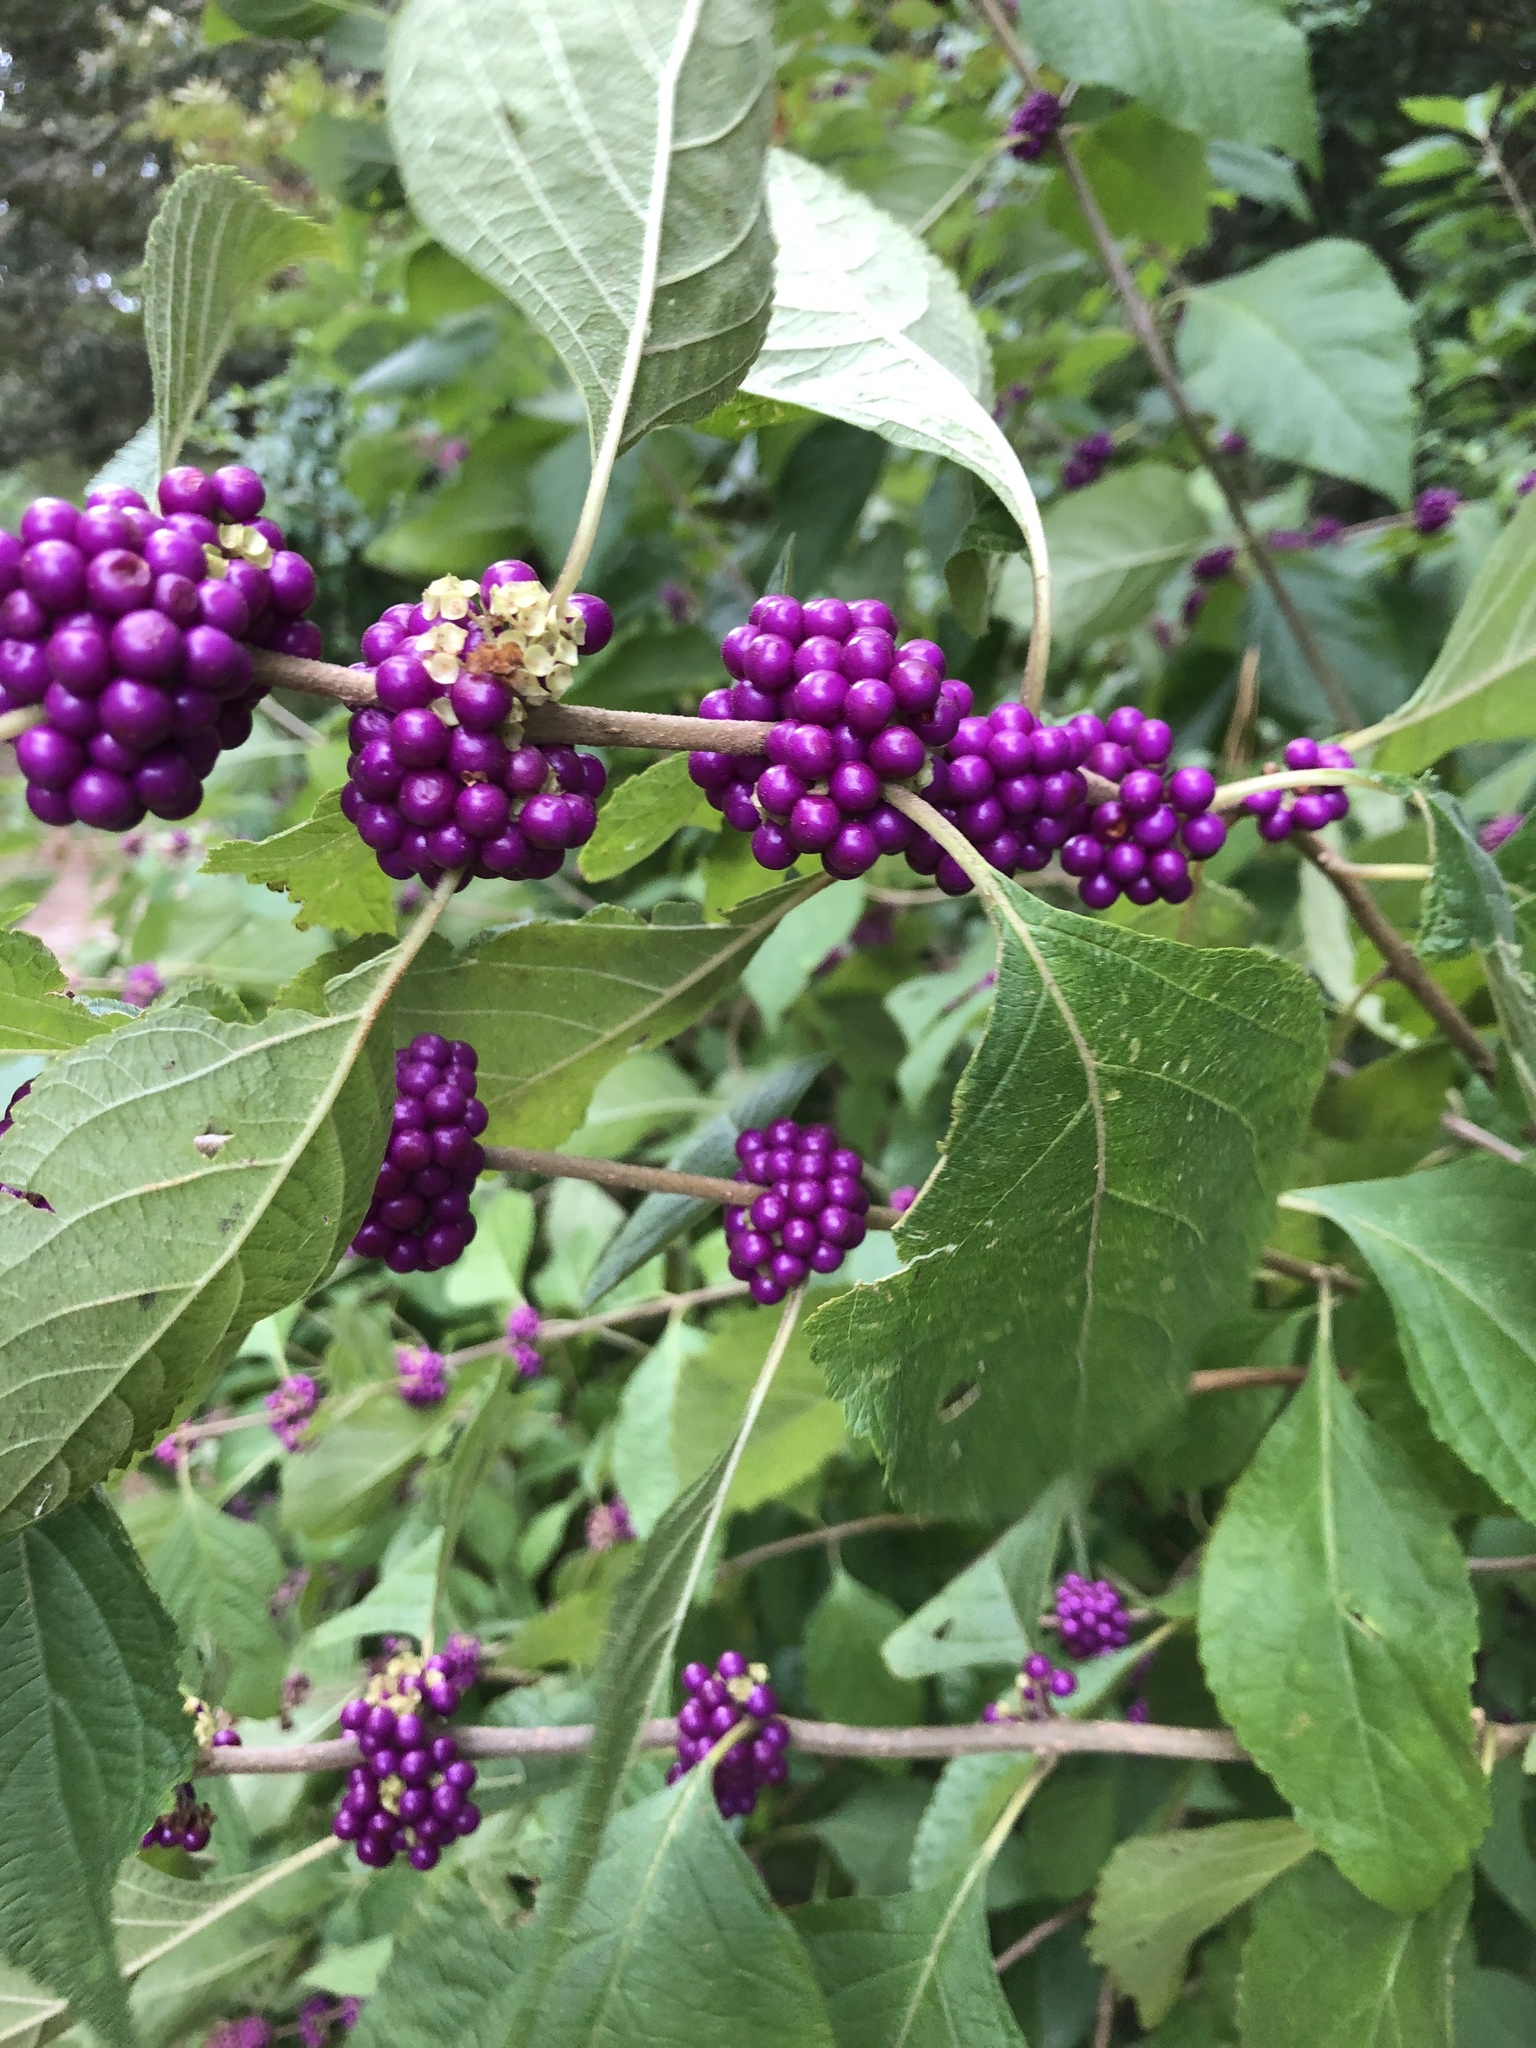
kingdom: Plantae
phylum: Tracheophyta
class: Magnoliopsida
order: Lamiales
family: Lamiaceae
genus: Callicarpa
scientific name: Callicarpa americana
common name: American beautyberry
